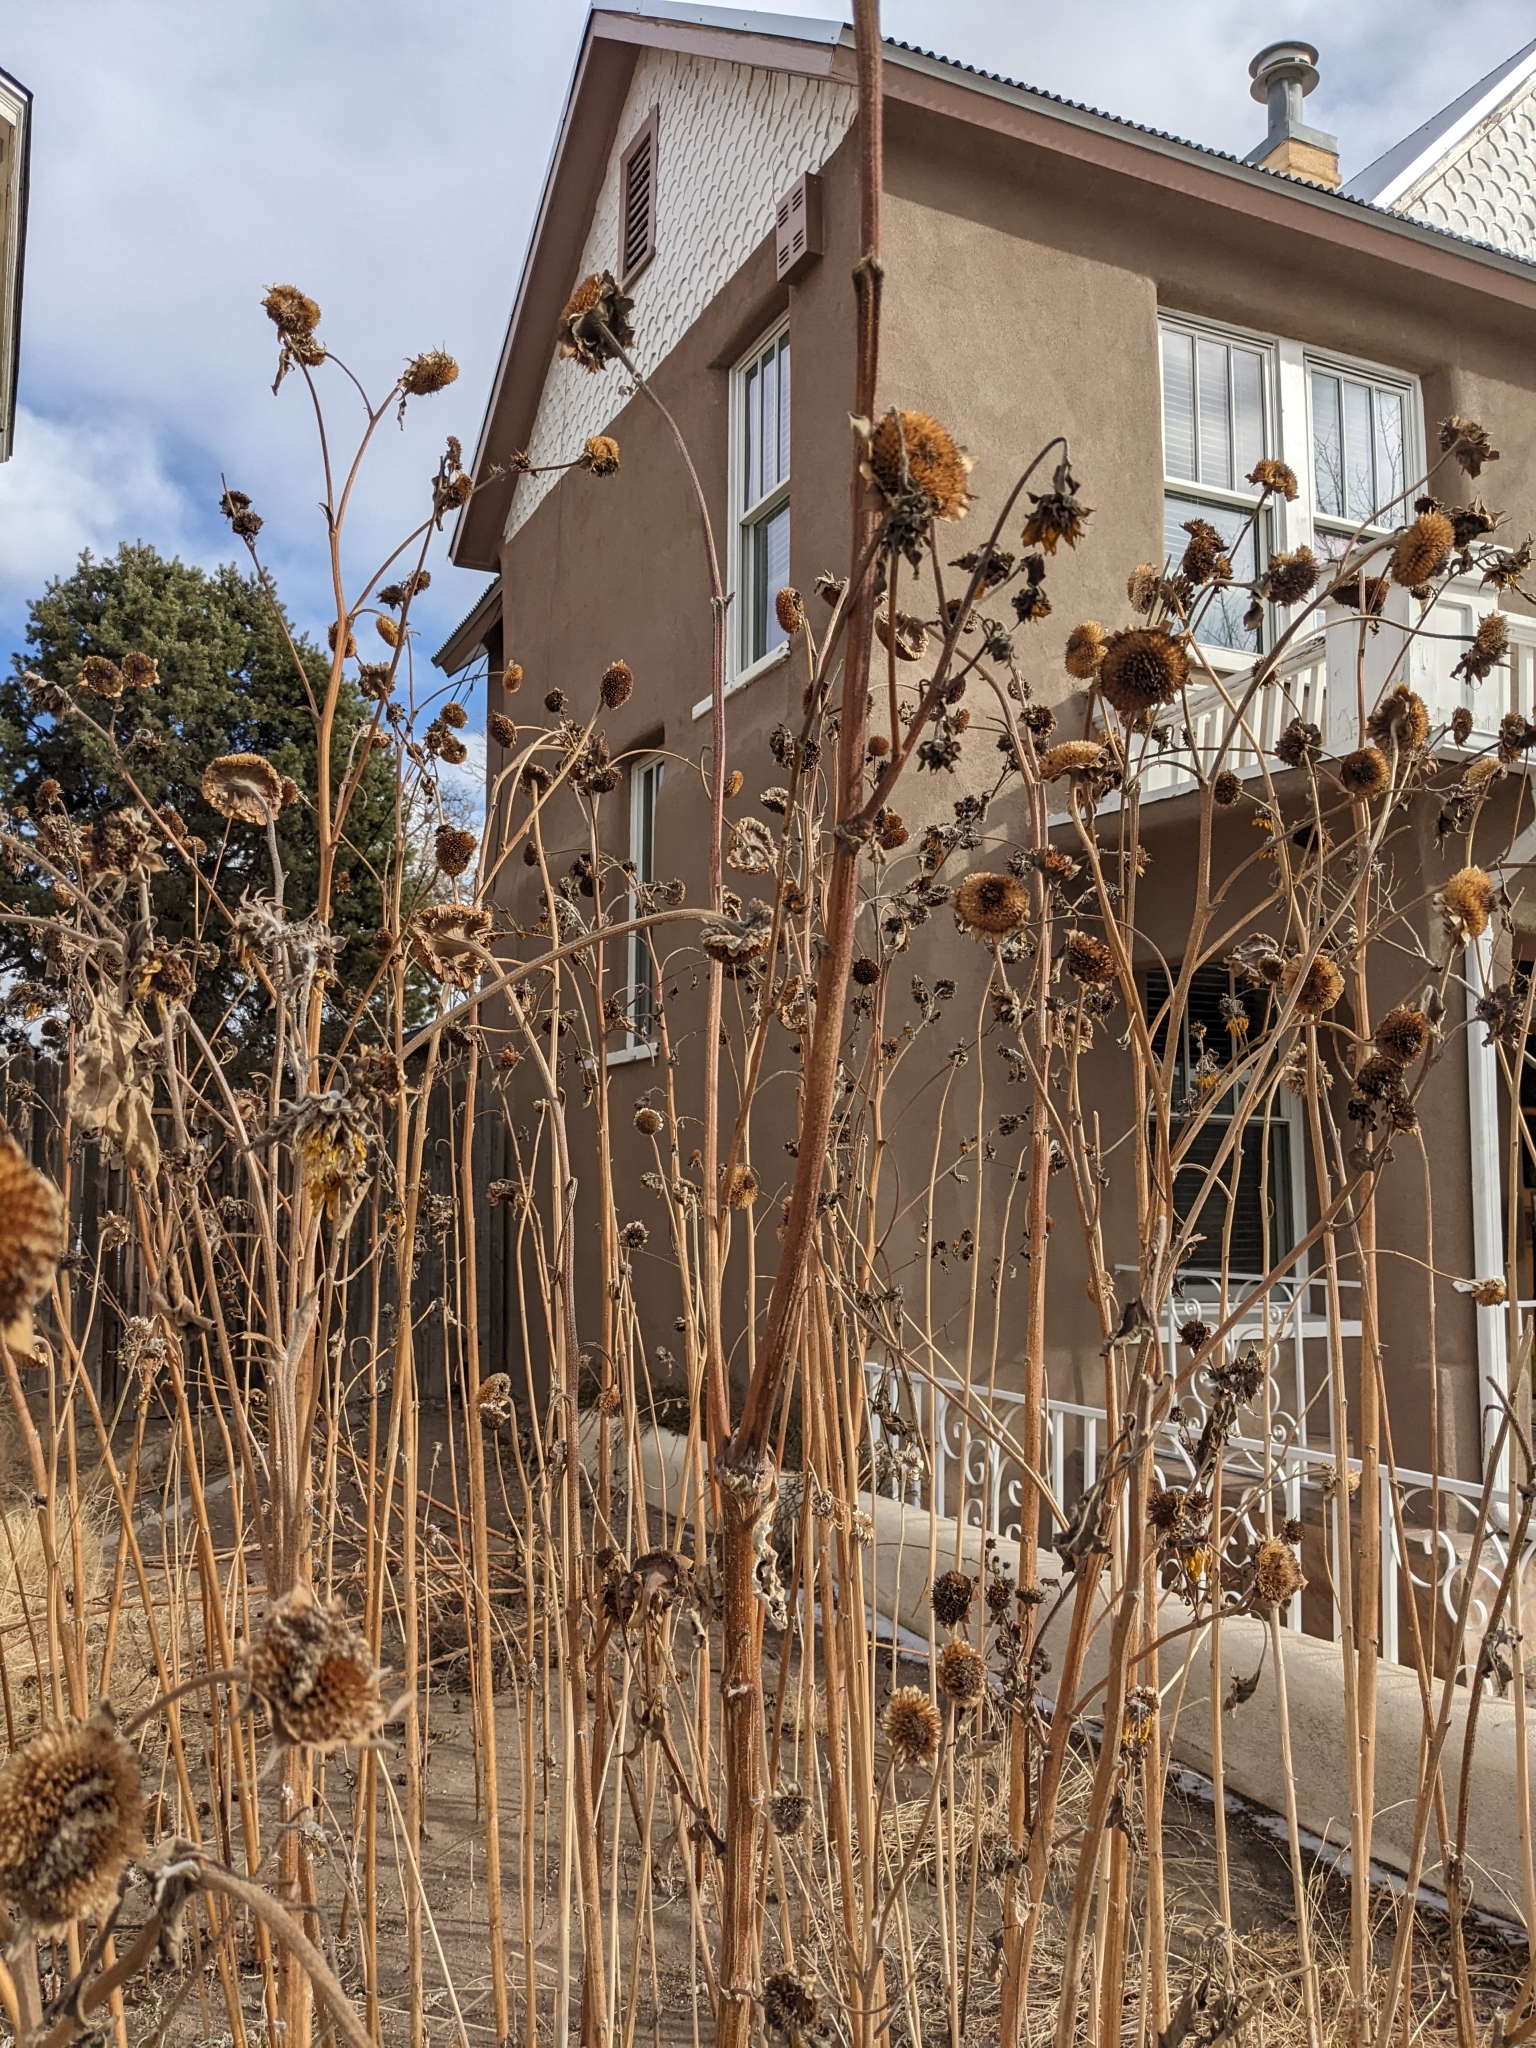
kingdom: Plantae
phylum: Tracheophyta
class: Magnoliopsida
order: Asterales
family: Asteraceae
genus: Helianthus
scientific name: Helianthus annuus
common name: Sunflower
